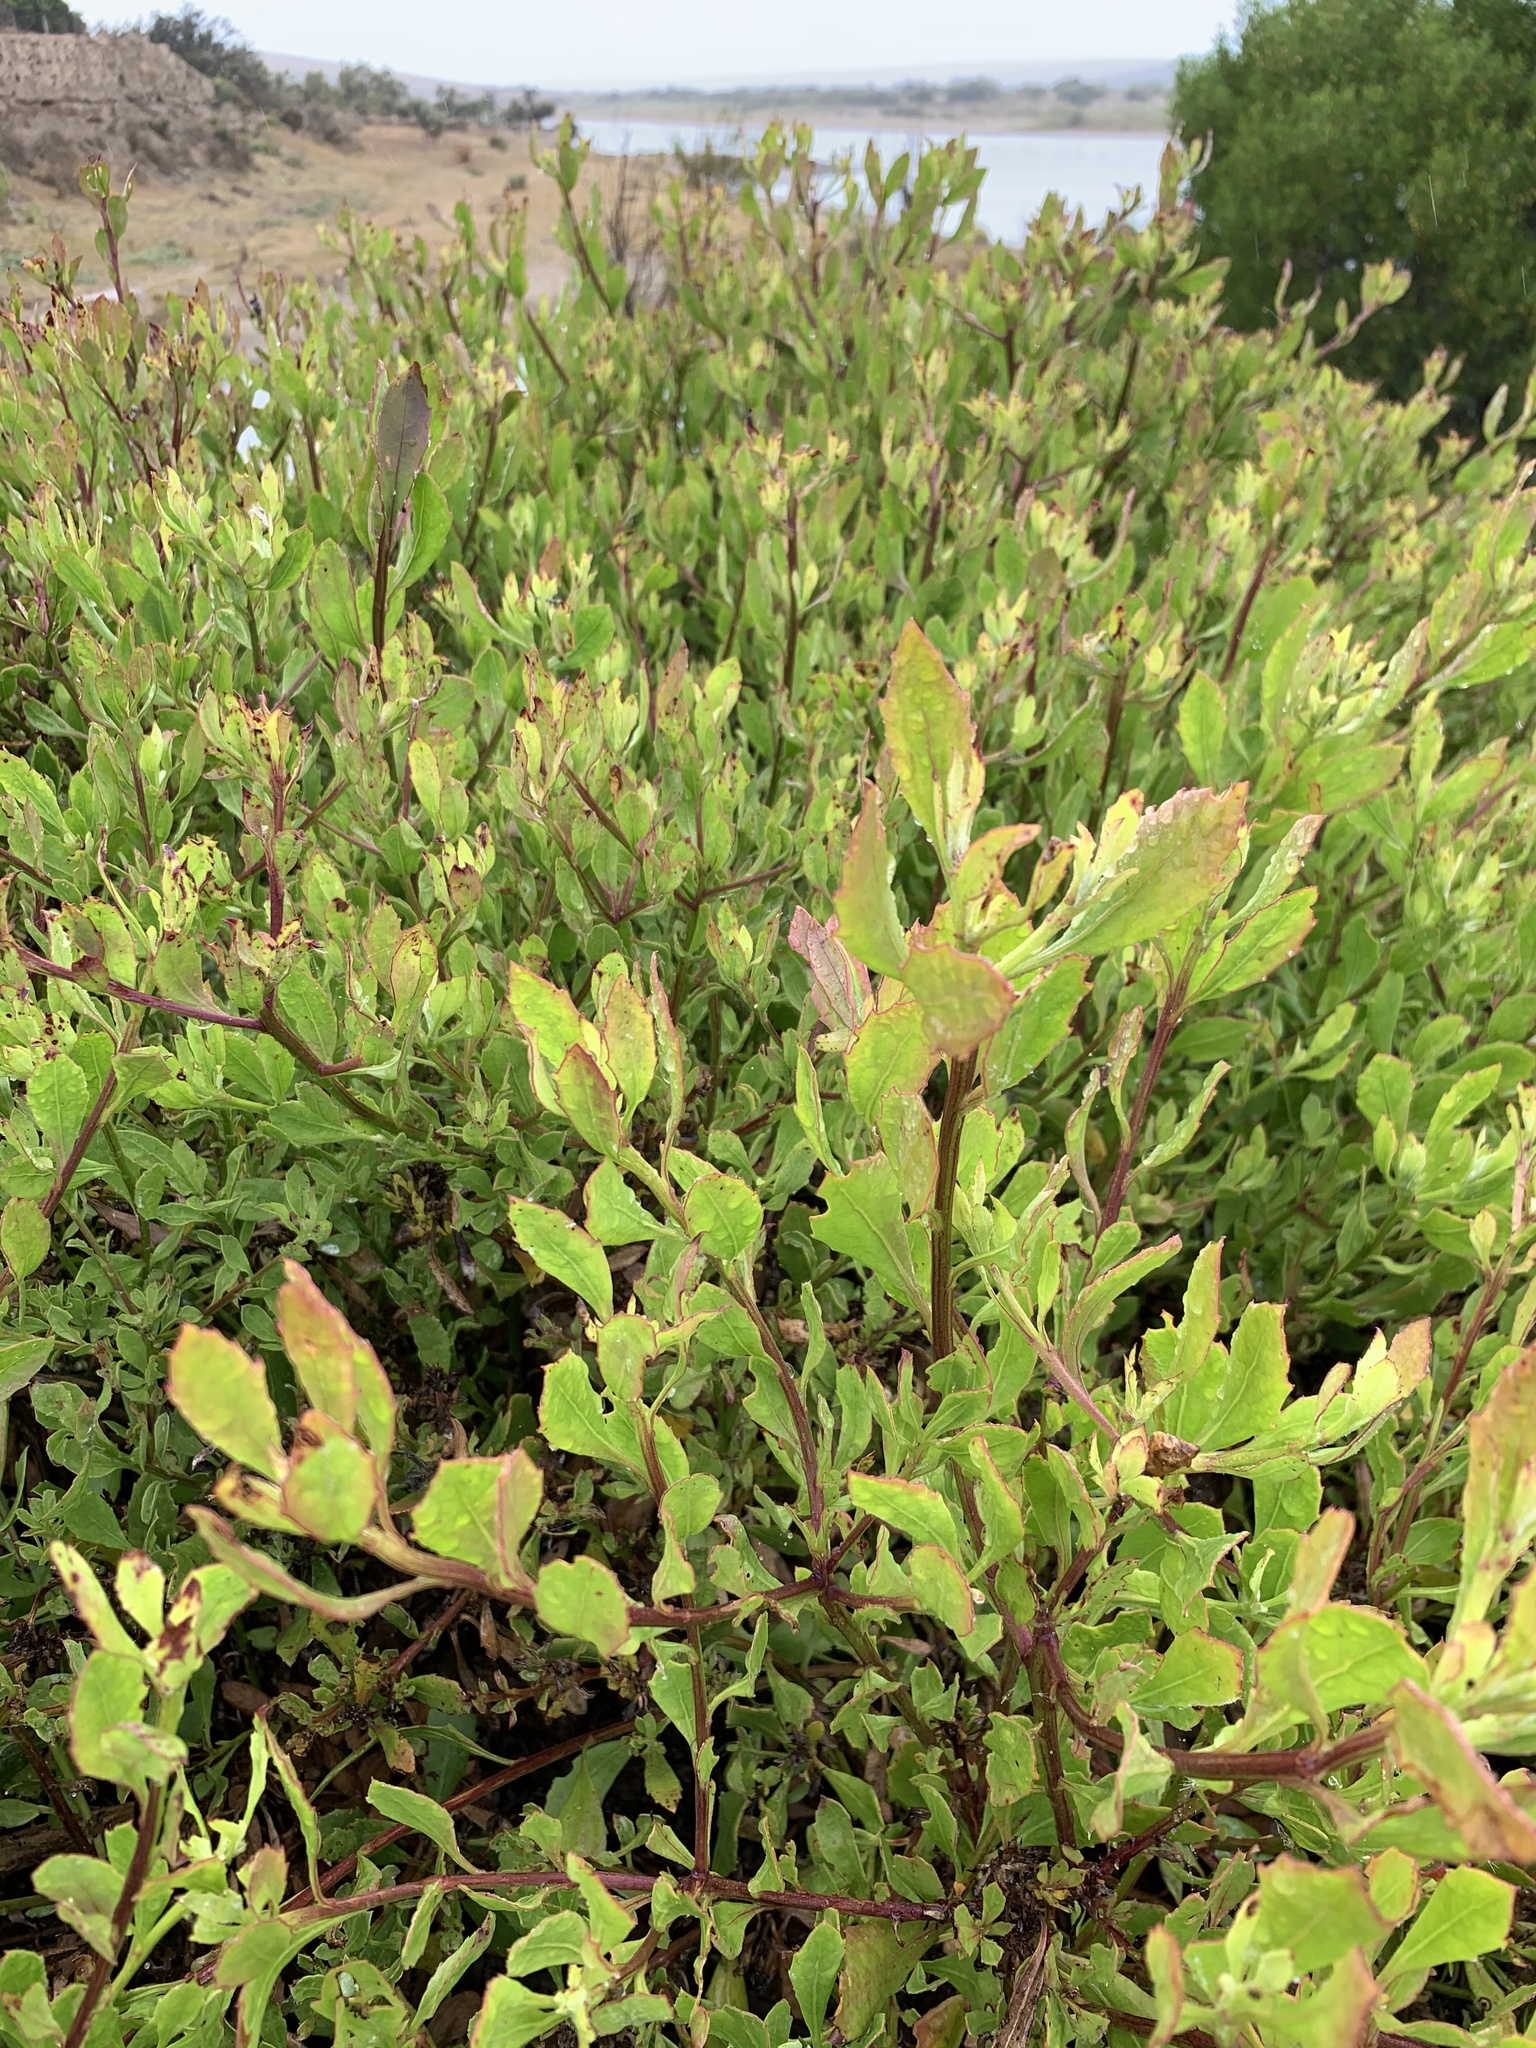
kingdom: Plantae
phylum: Tracheophyta
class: Magnoliopsida
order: Asterales
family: Asteraceae
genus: Osteospermum
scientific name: Osteospermum moniliferum
